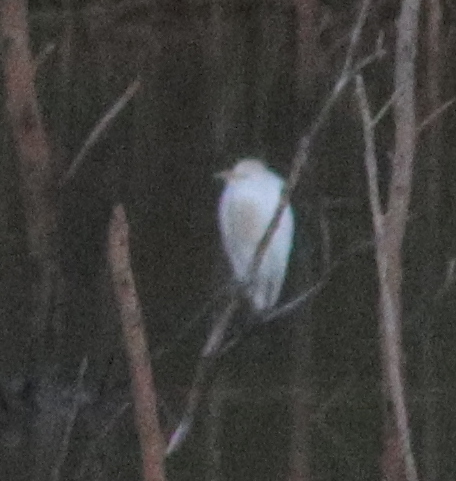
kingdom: Animalia
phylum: Chordata
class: Aves
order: Pelecaniformes
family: Ardeidae
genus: Bubulcus
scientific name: Bubulcus ibis
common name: Cattle egret
